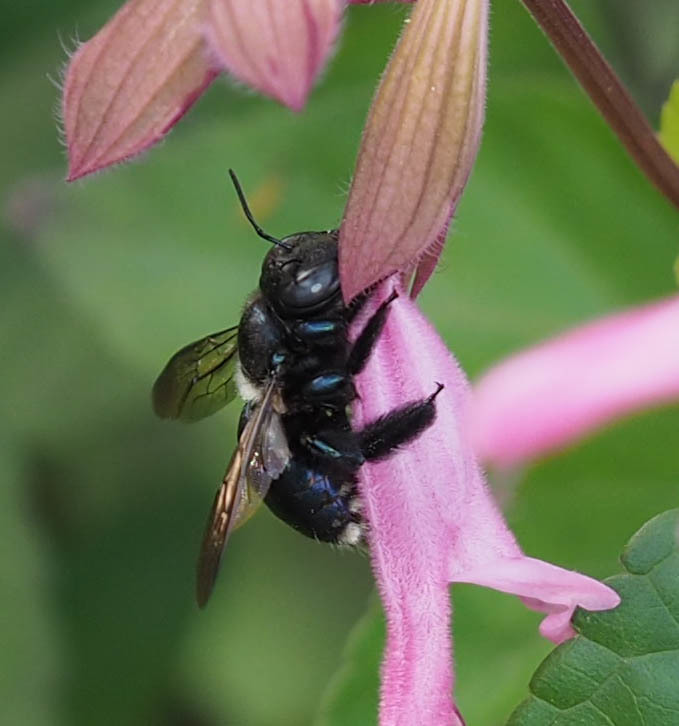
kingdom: Animalia
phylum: Arthropoda
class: Insecta
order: Hymenoptera
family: Apidae
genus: Xylocopa
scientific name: Xylocopa virginica
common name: Carpenter bee
